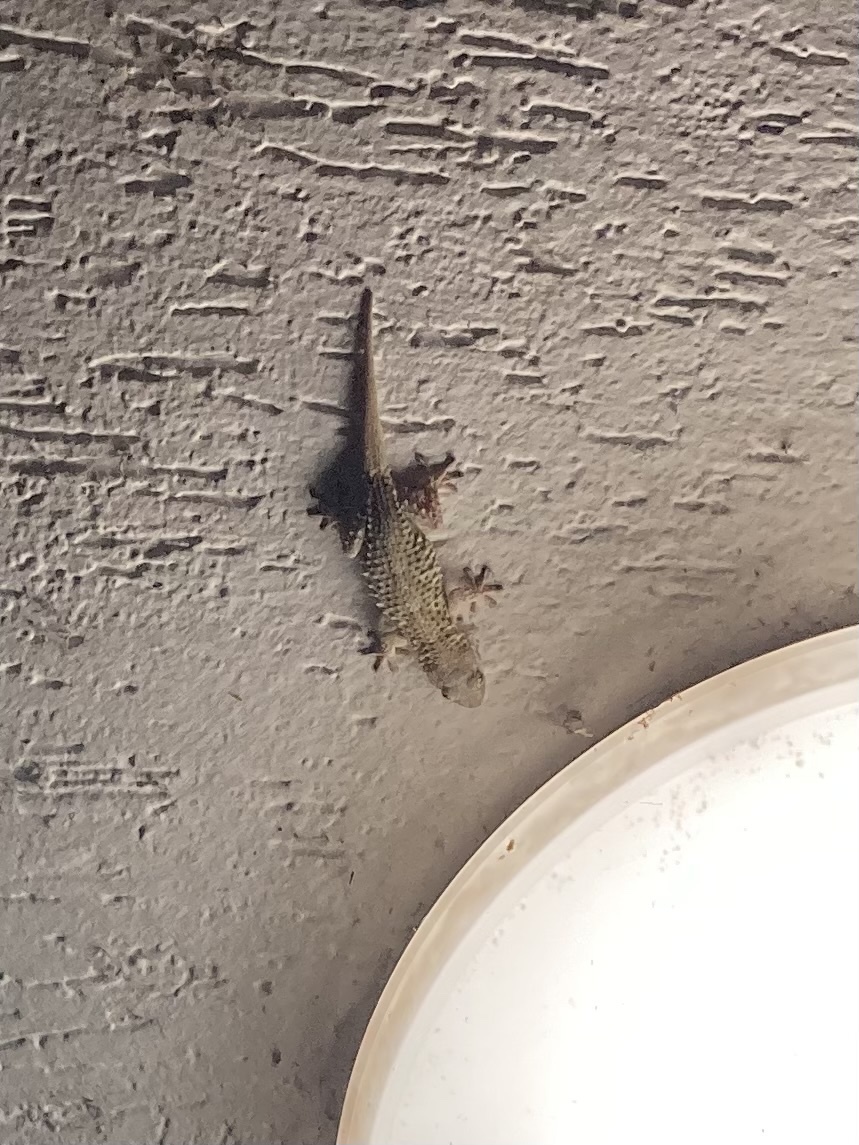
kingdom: Animalia
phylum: Chordata
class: Squamata
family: Phyllodactylidae
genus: Tarentola
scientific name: Tarentola mauritanica
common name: Moorish gecko
